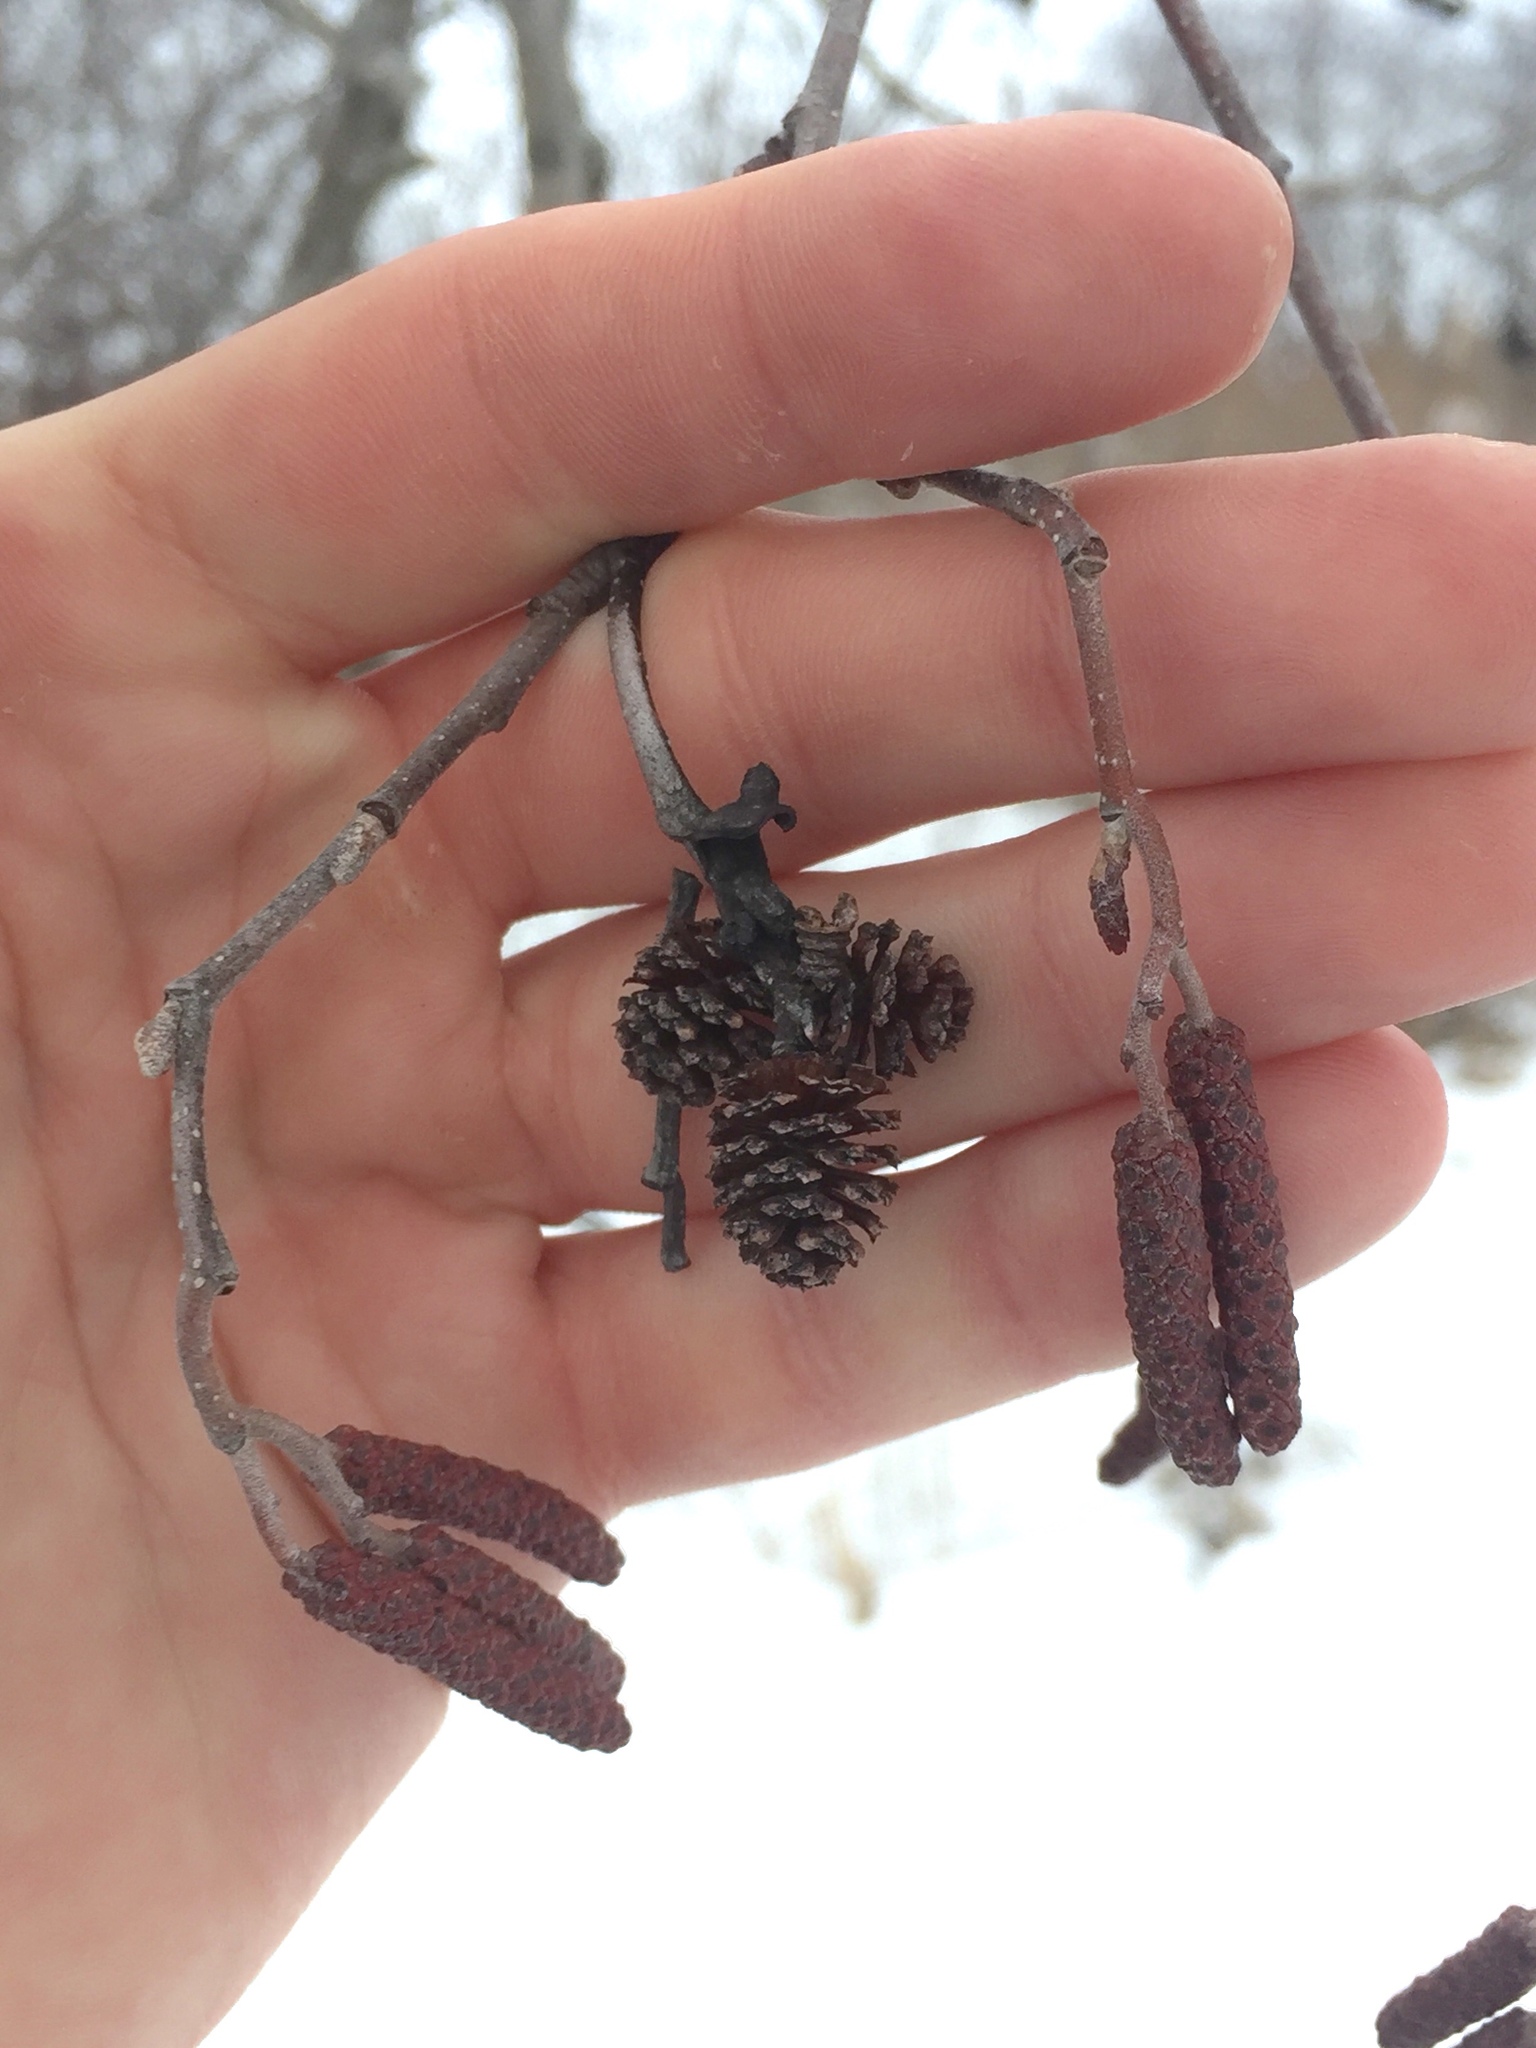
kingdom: Plantae
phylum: Tracheophyta
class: Magnoliopsida
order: Fagales
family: Betulaceae
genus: Alnus
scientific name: Alnus incana
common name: Grey alder
